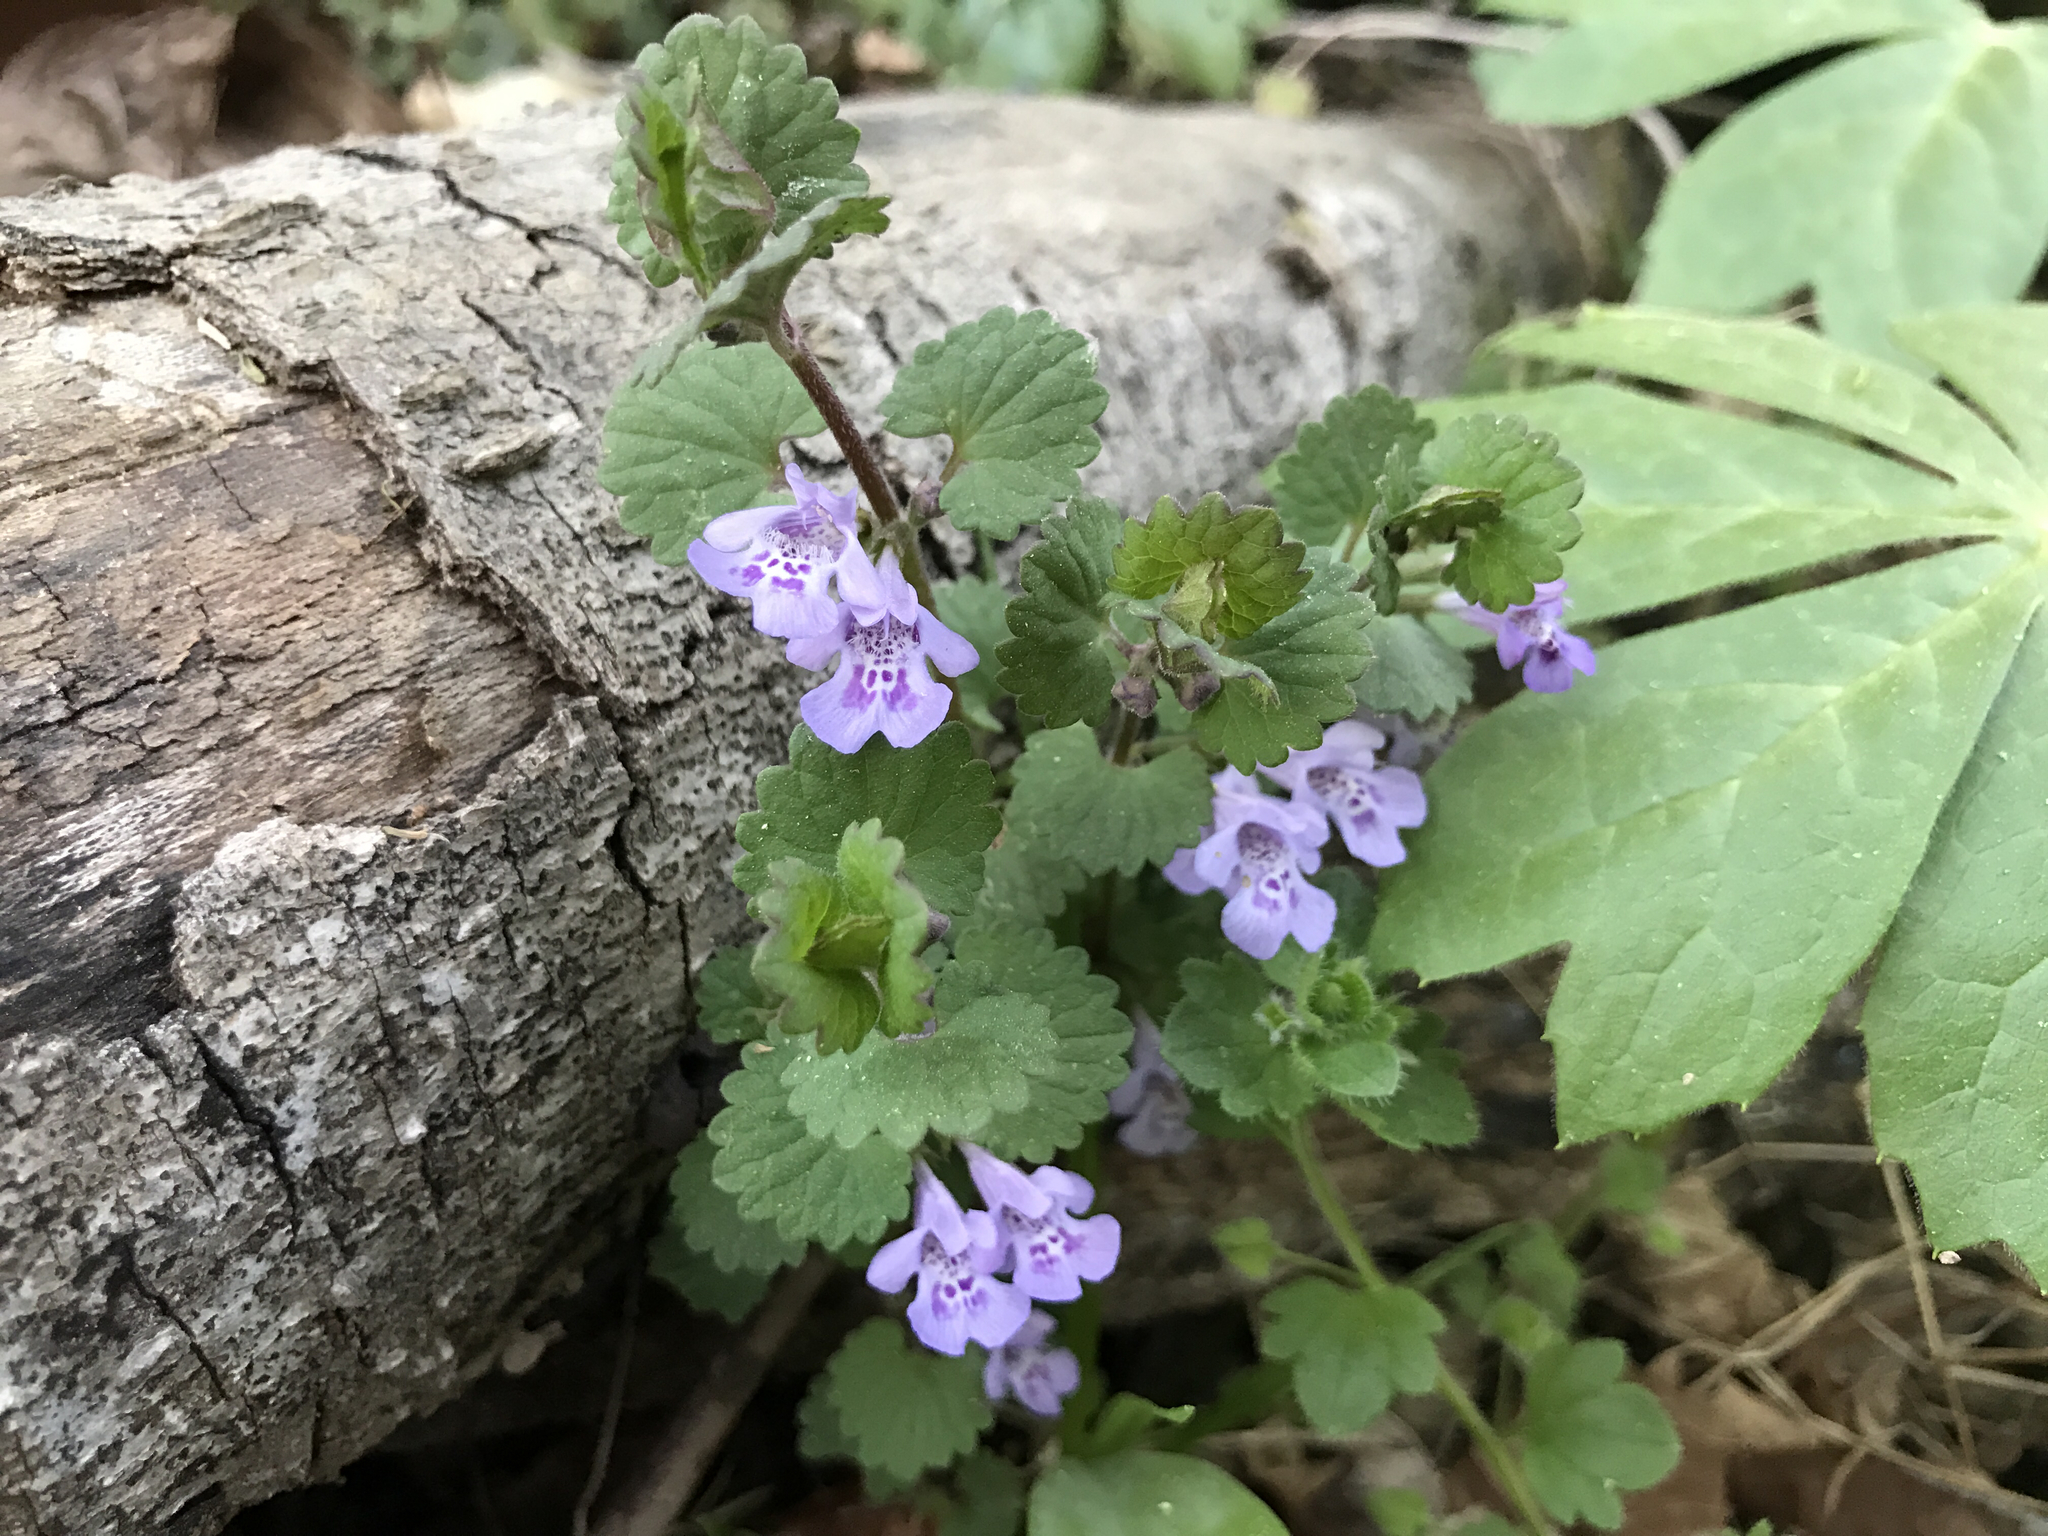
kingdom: Plantae
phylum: Tracheophyta
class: Magnoliopsida
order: Lamiales
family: Lamiaceae
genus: Glechoma
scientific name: Glechoma hederacea
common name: Ground ivy
